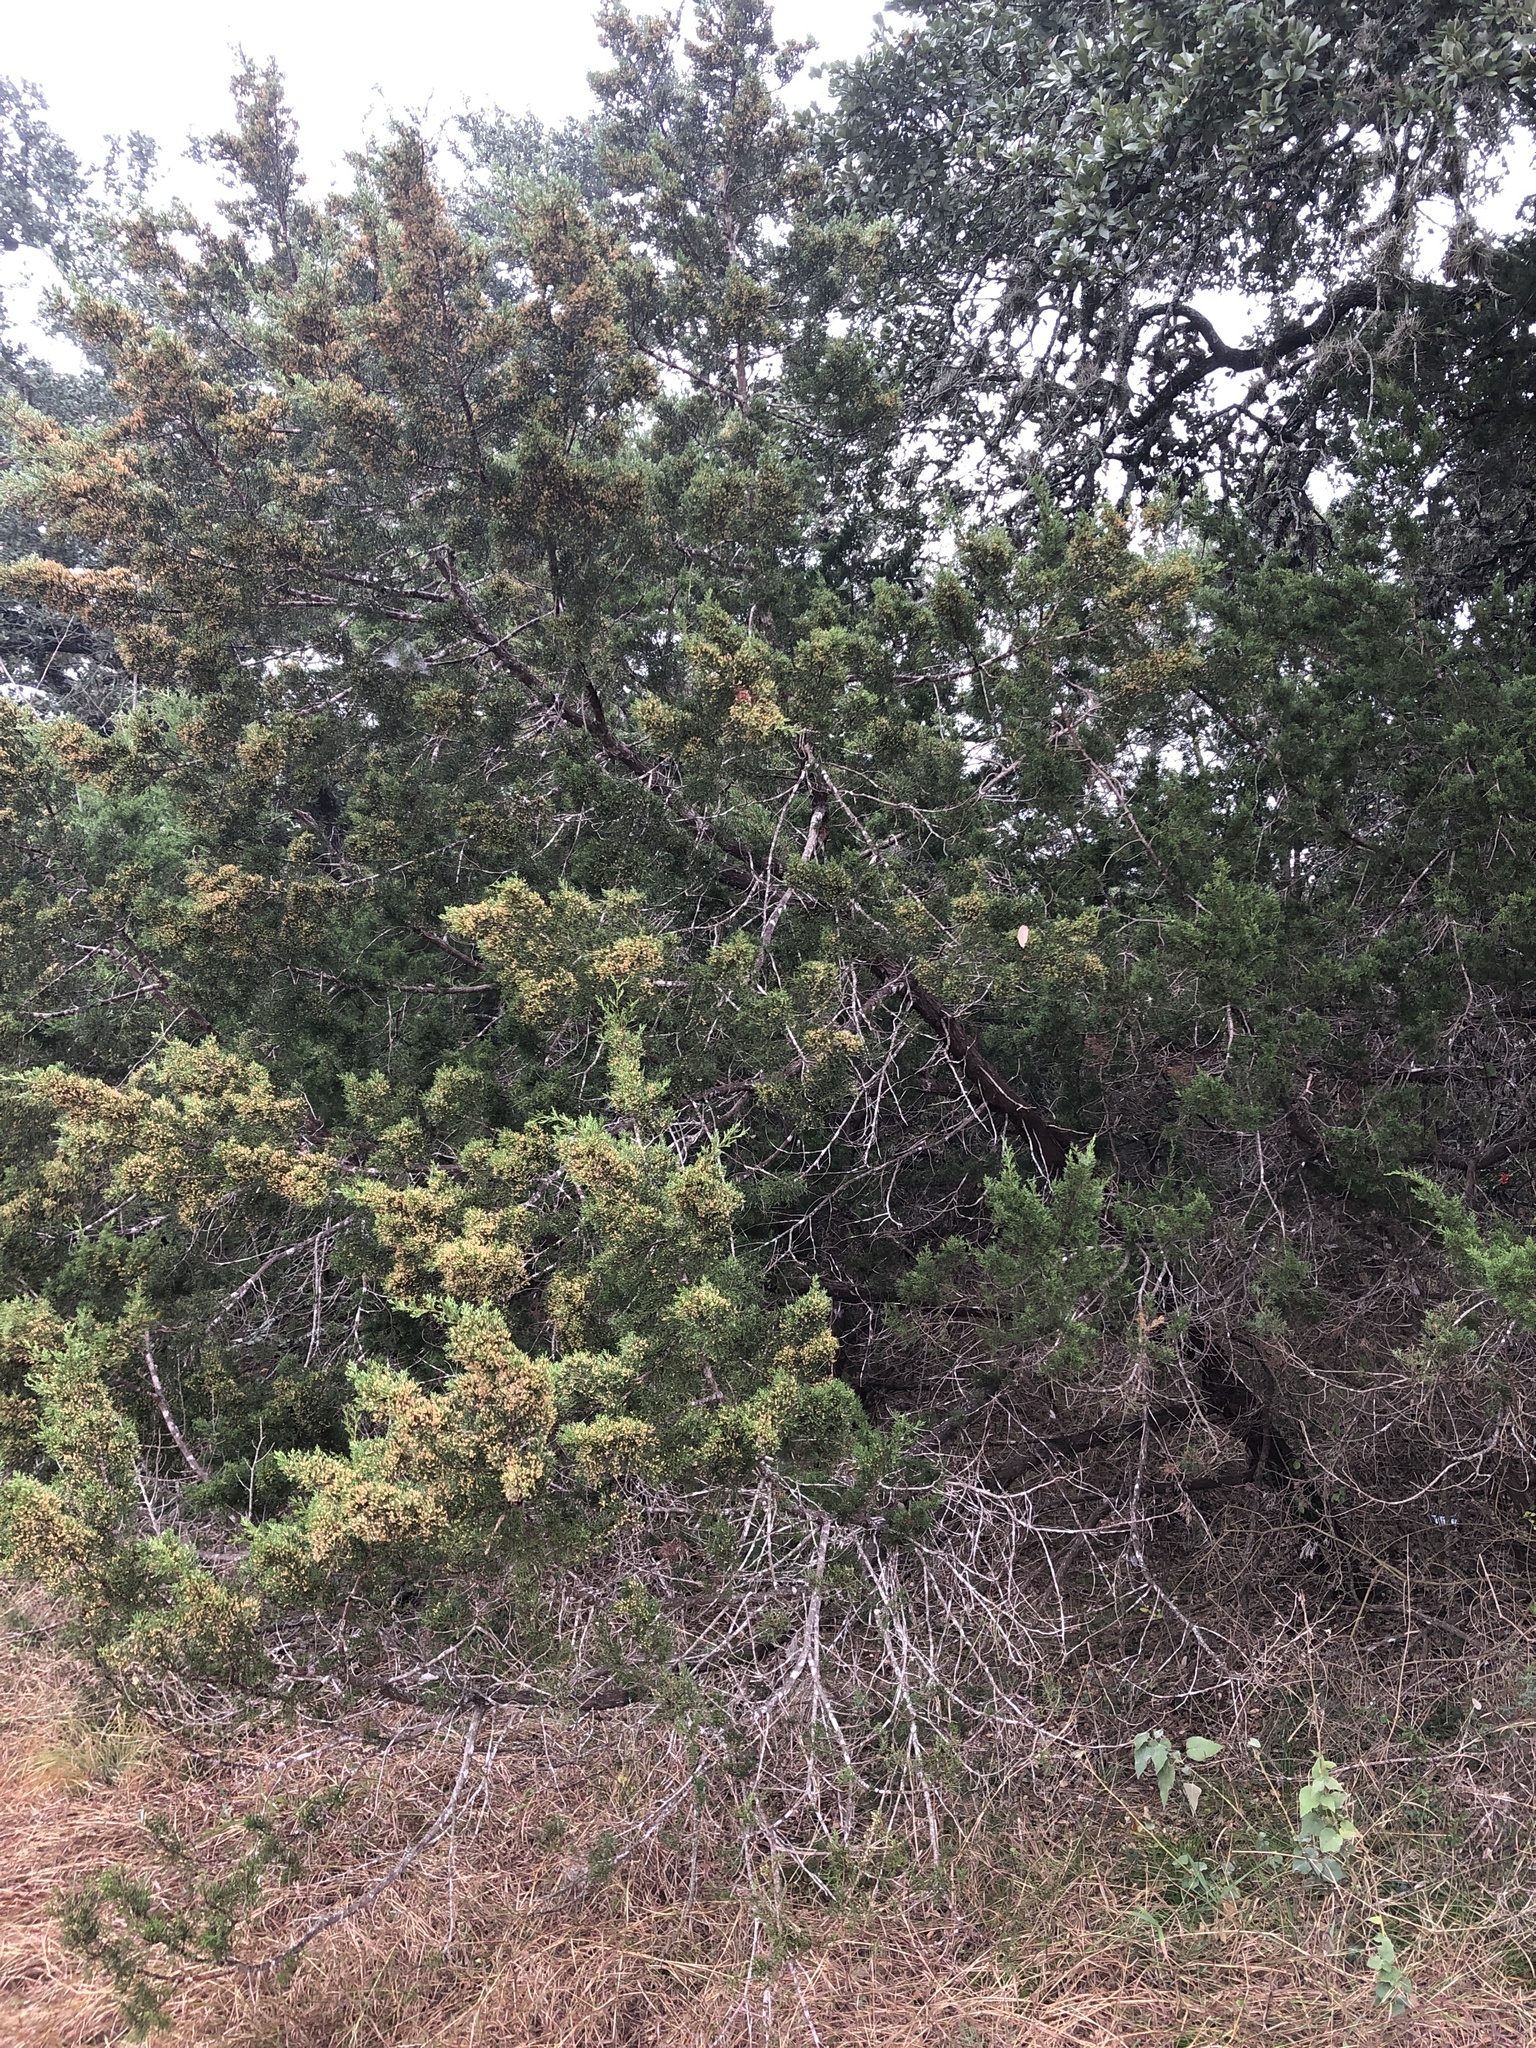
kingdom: Plantae
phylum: Tracheophyta
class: Pinopsida
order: Pinales
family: Cupressaceae
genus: Juniperus
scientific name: Juniperus ashei
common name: Mexican juniper
